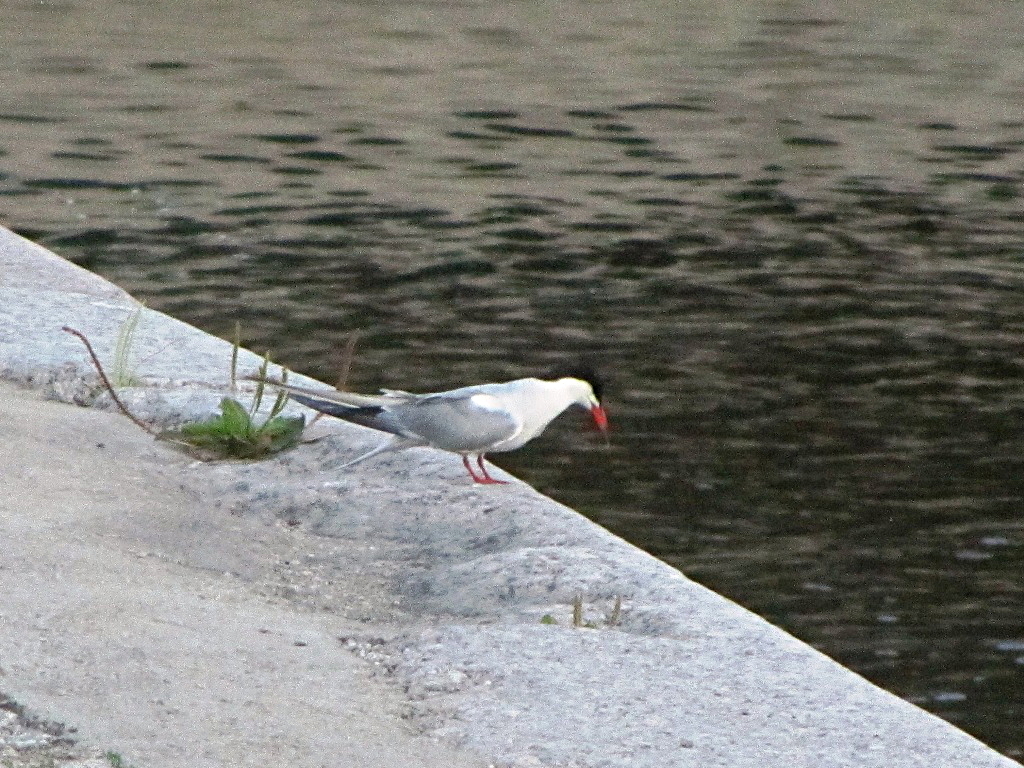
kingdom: Animalia
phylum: Chordata
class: Aves
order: Charadriiformes
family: Laridae
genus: Sterna
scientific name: Sterna hirundo
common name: Common tern
